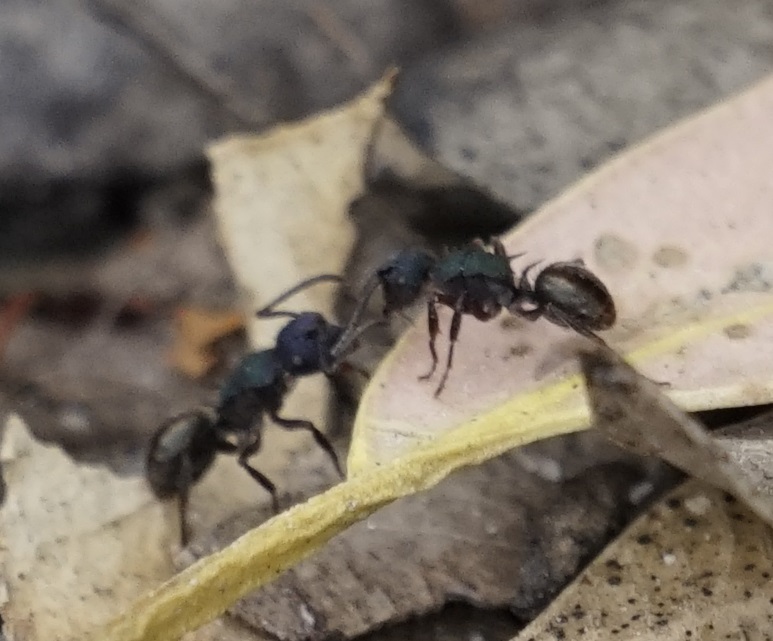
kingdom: Animalia
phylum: Arthropoda
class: Insecta
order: Hymenoptera
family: Formicidae
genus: Polyrhachis
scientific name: Polyrhachis hookeri
